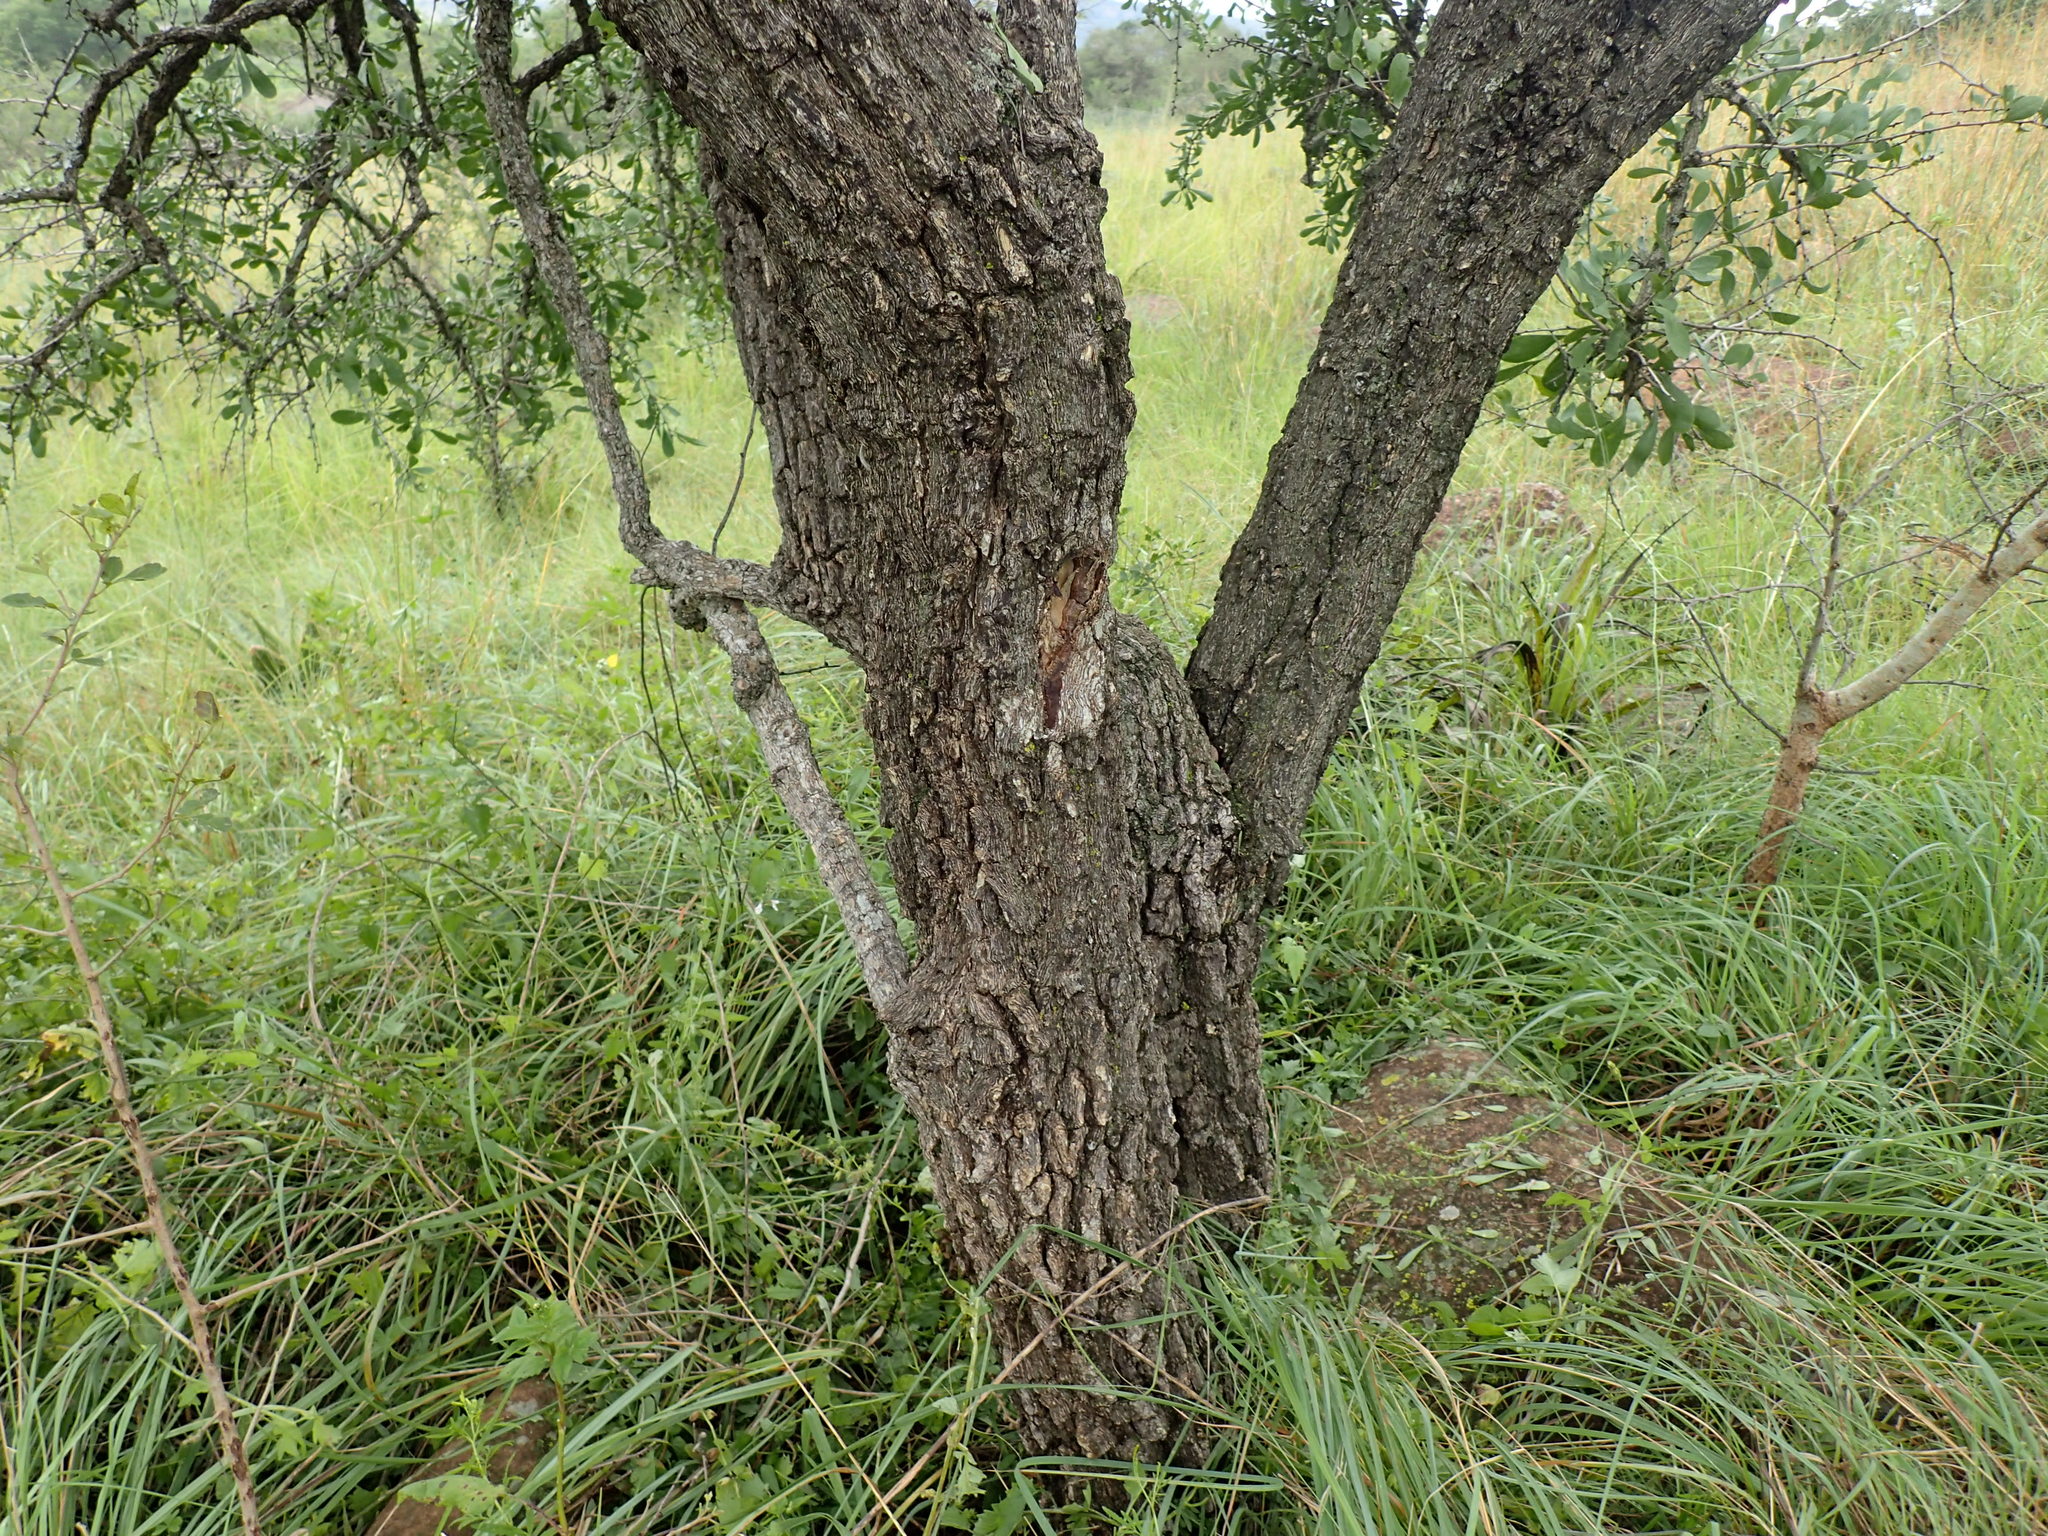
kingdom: Plantae
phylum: Tracheophyta
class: Magnoliopsida
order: Celastrales
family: Celastraceae
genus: Gymnosporia
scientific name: Gymnosporia glaucophylla
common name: Blue spike-thorn
